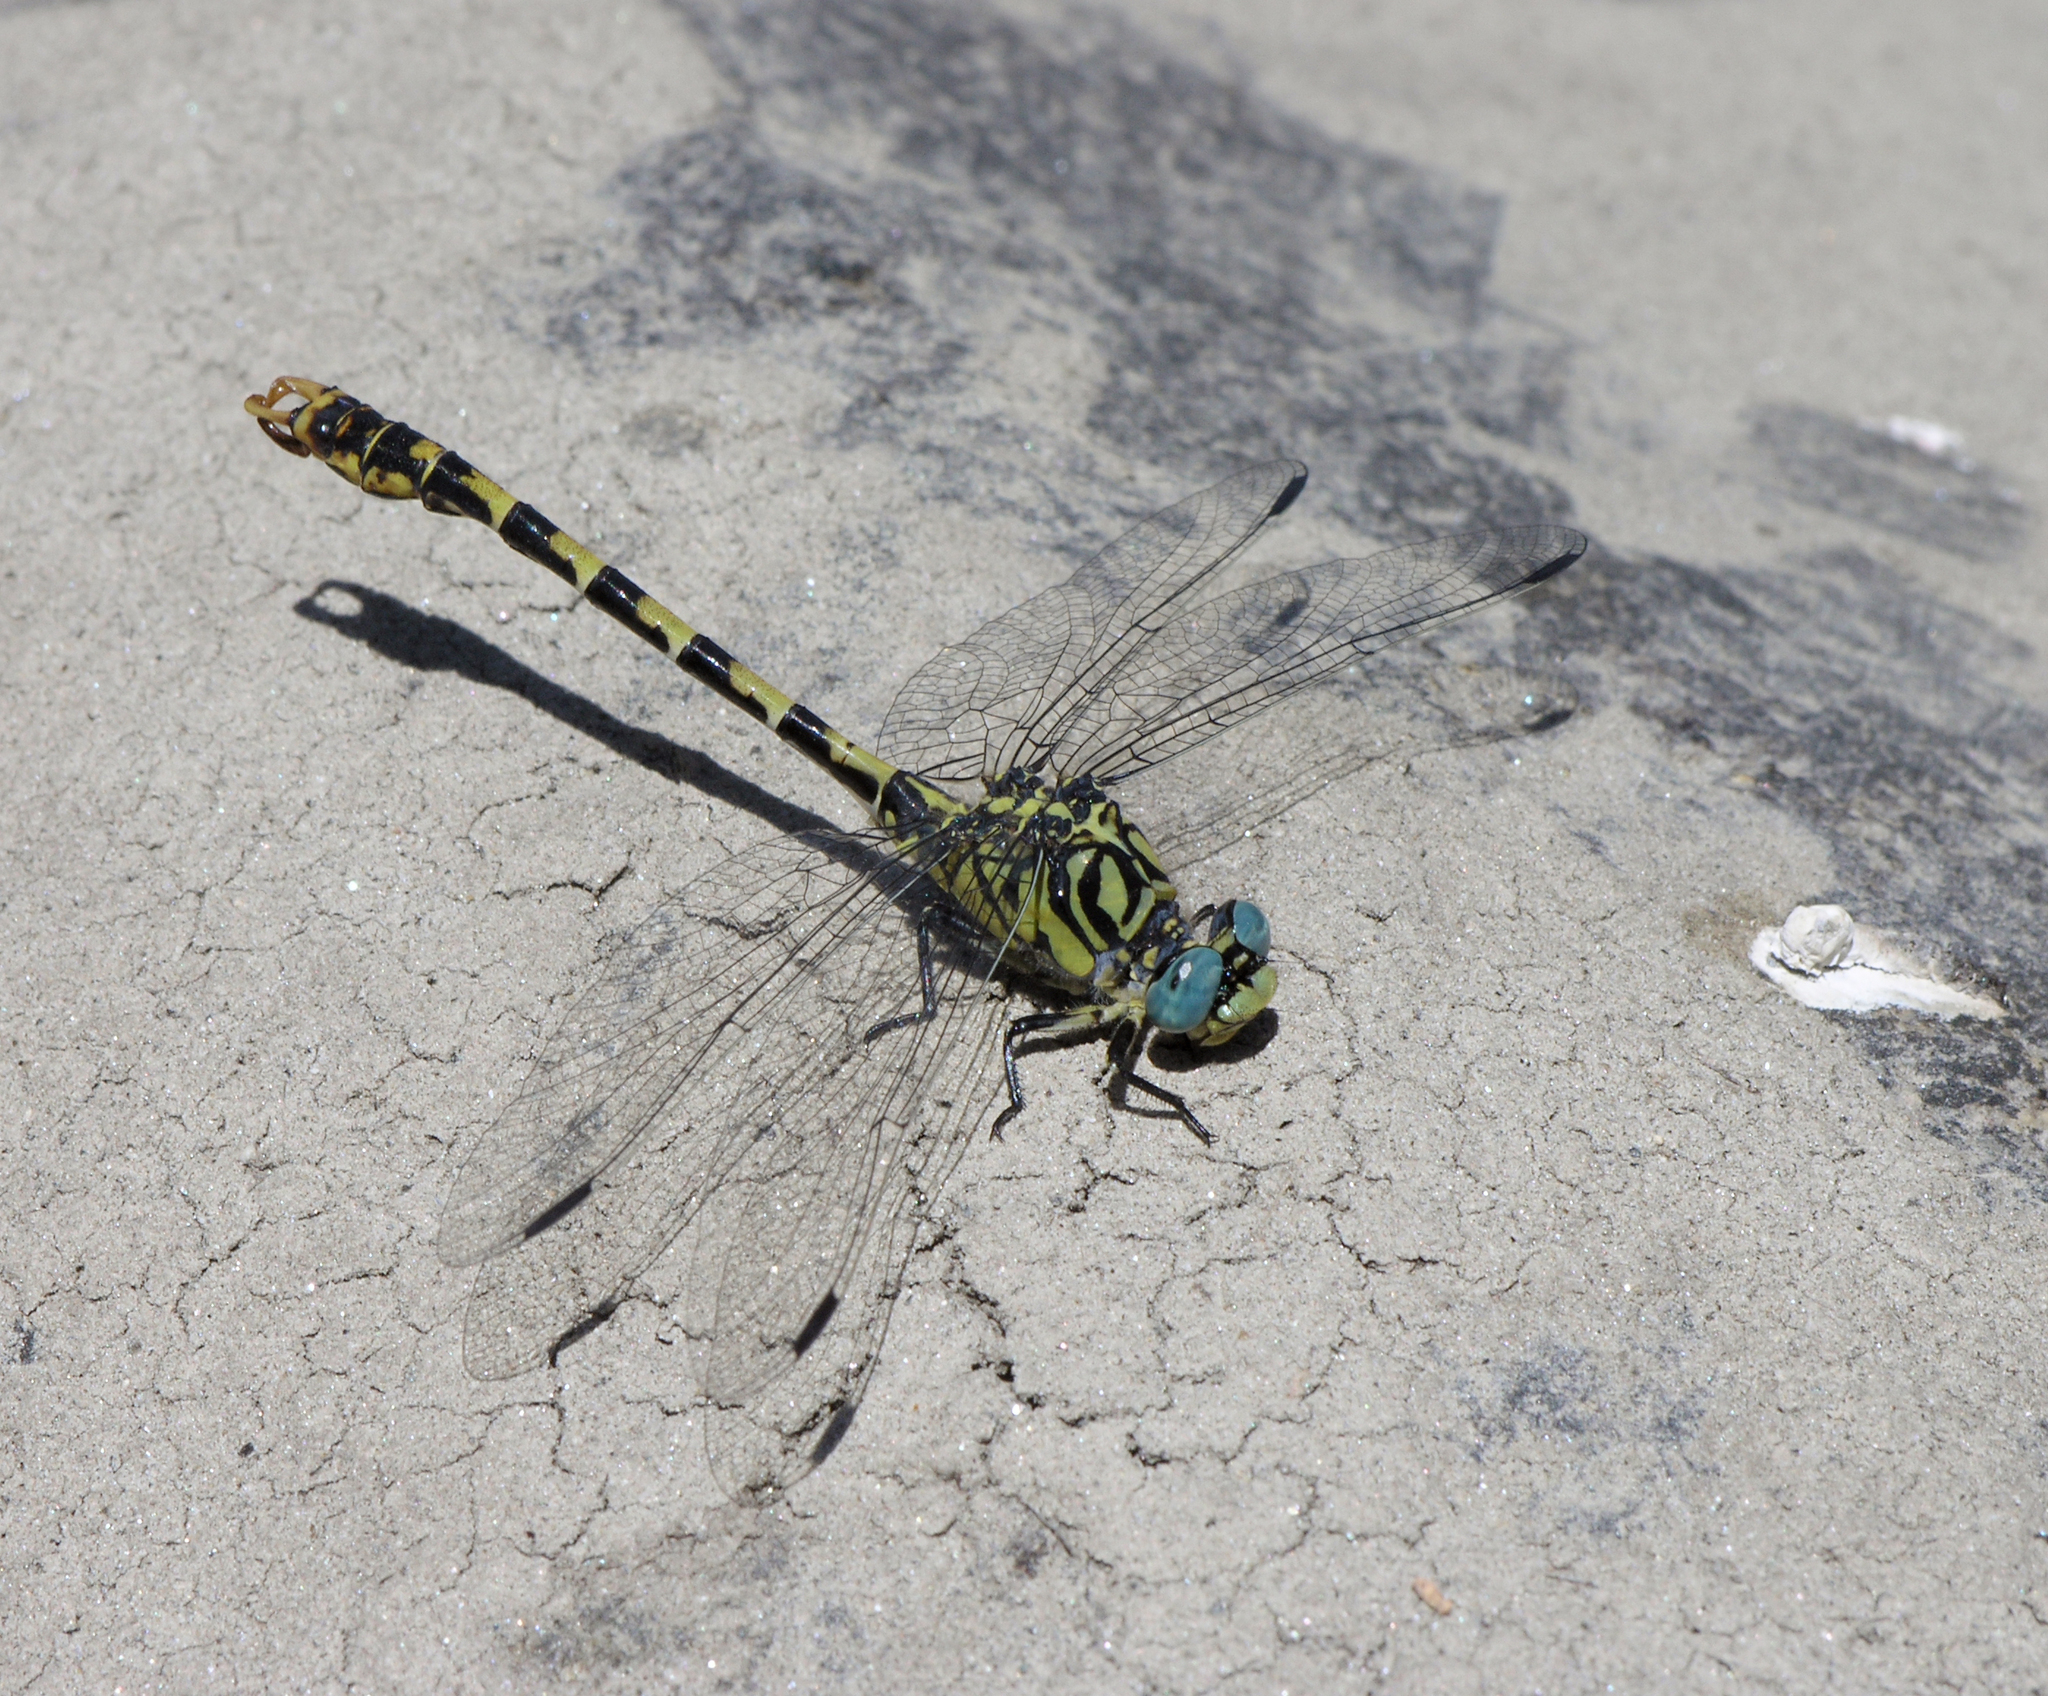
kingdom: Animalia
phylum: Arthropoda
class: Insecta
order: Odonata
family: Gomphidae
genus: Onychogomphus
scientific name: Onychogomphus forcipatus
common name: Small pincertail
